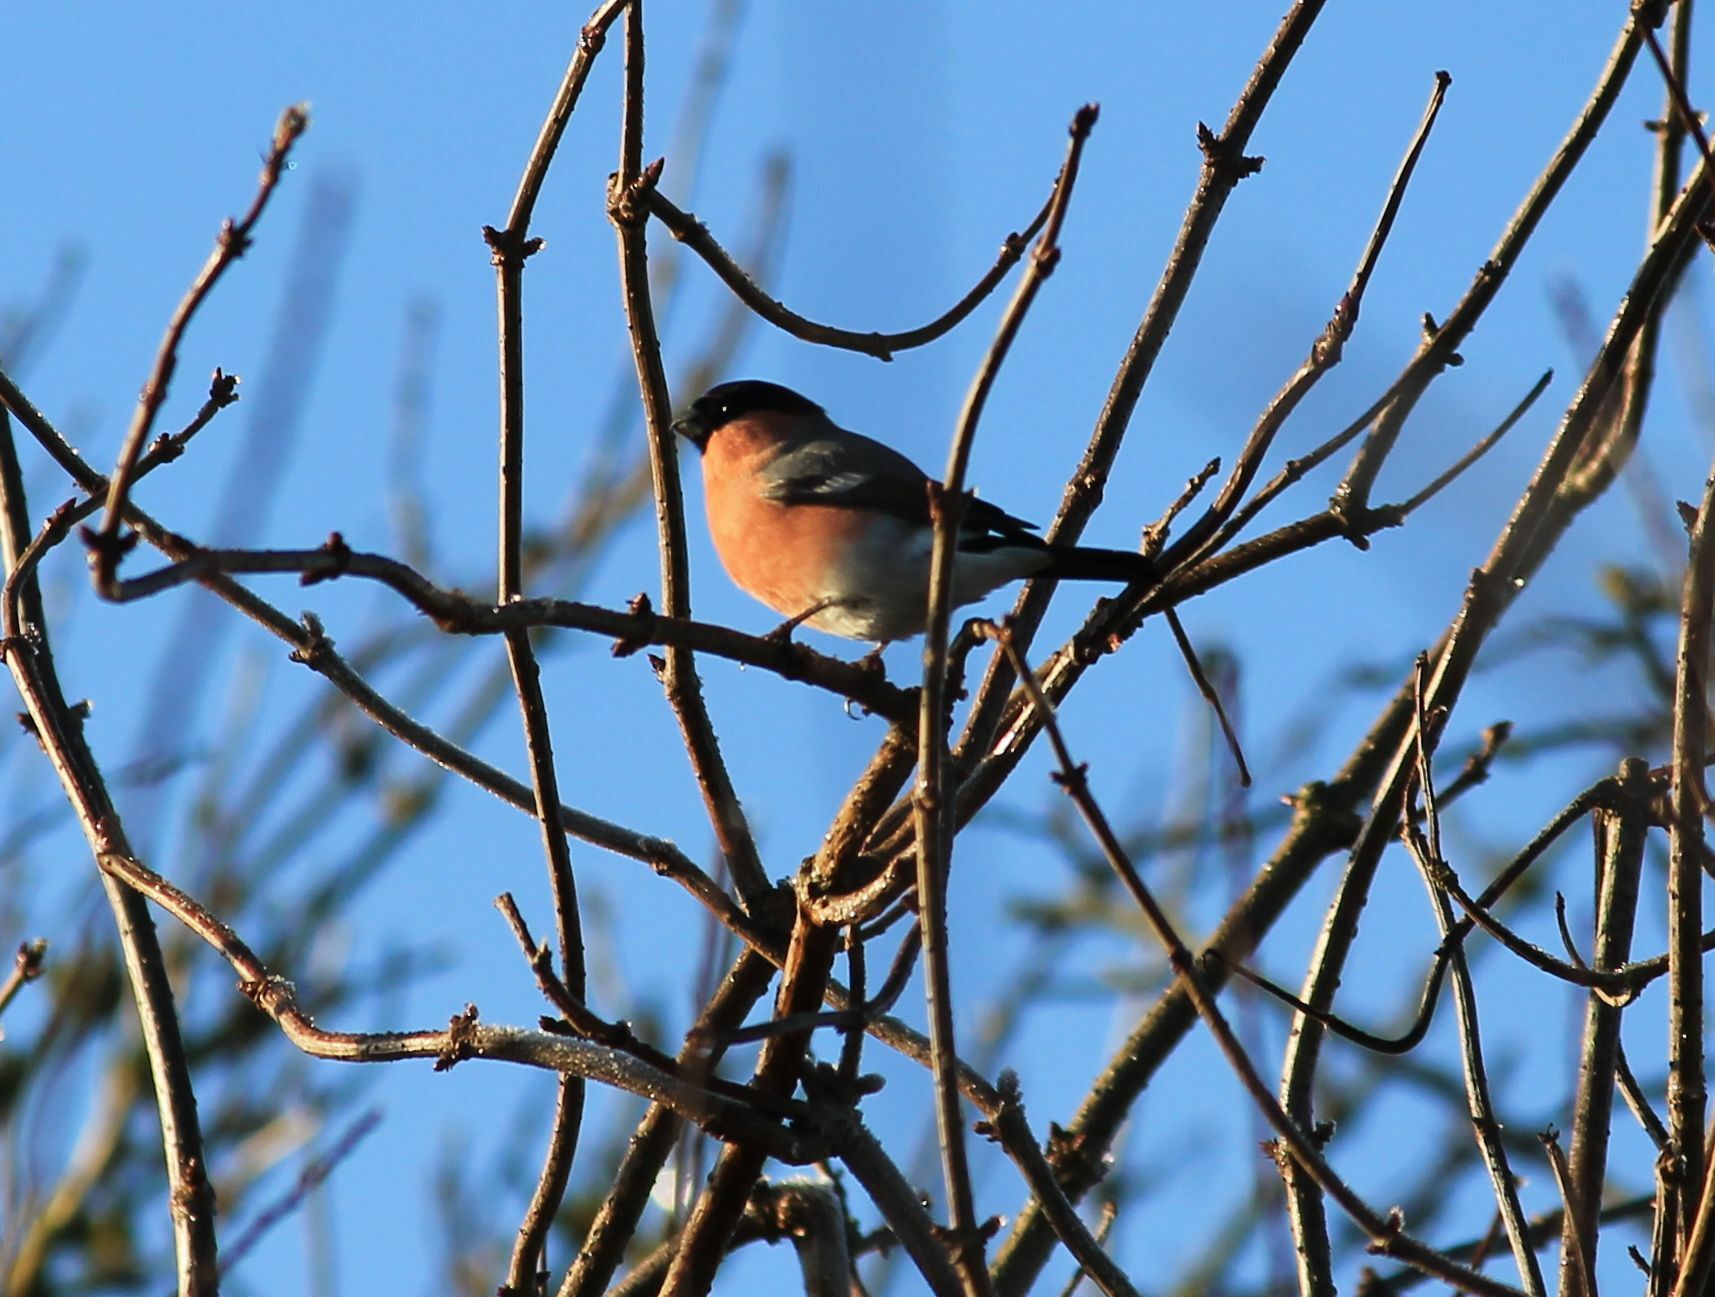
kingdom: Animalia
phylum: Chordata
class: Aves
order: Passeriformes
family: Fringillidae
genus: Pyrrhula
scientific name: Pyrrhula pyrrhula
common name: Eurasian bullfinch
